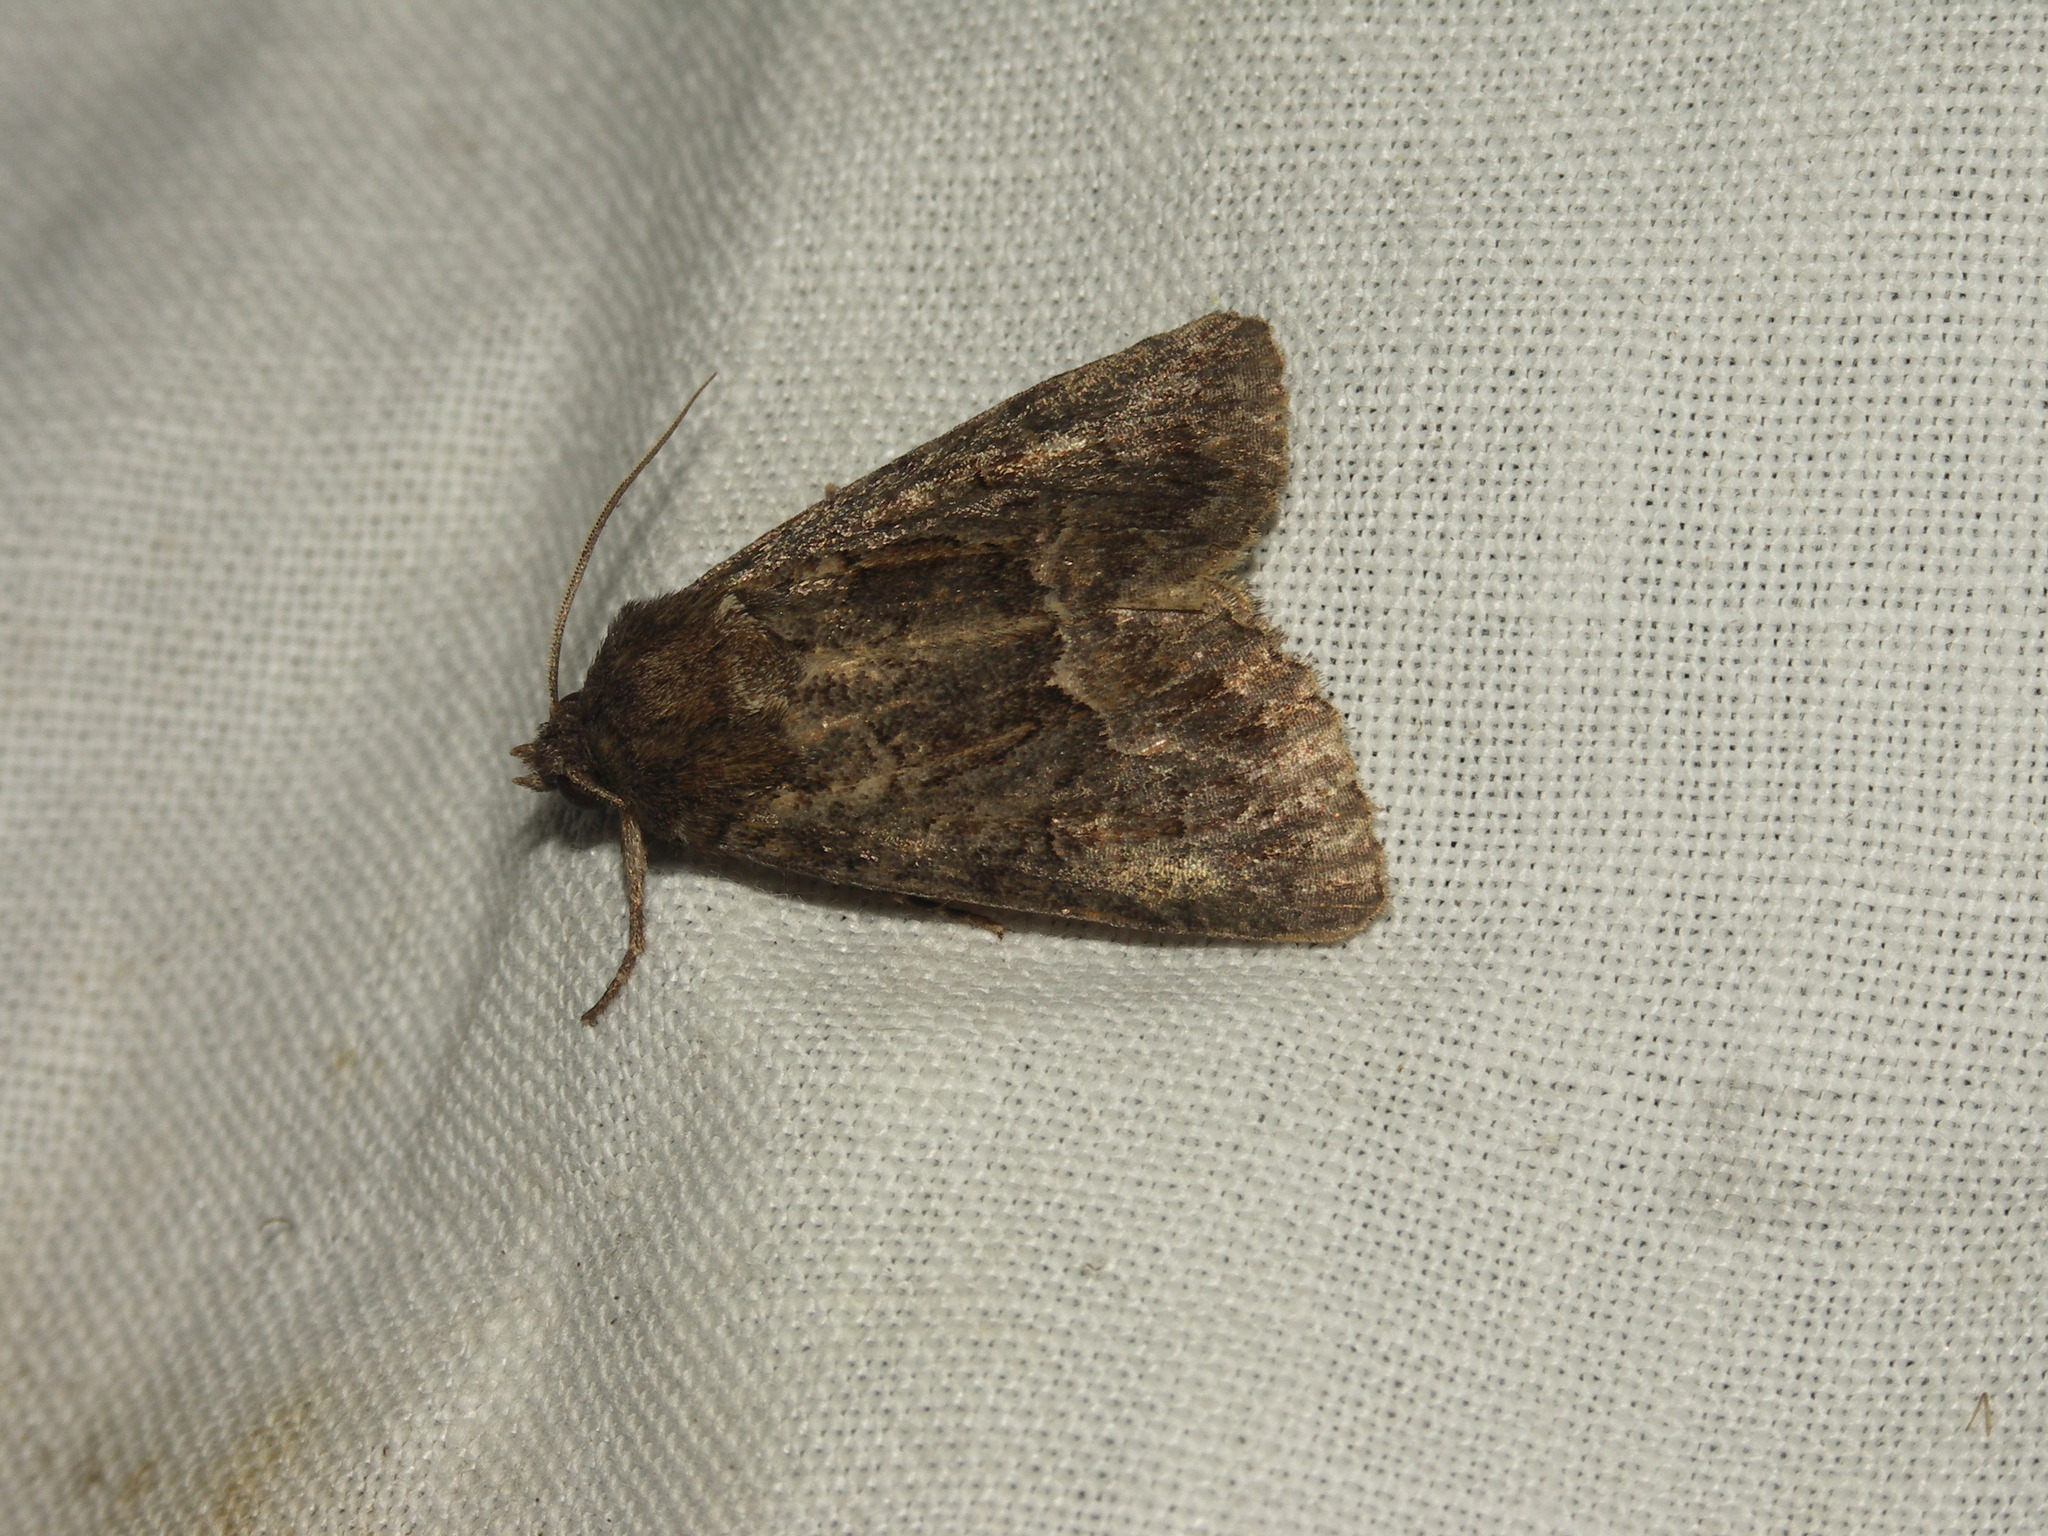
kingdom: Animalia
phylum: Arthropoda
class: Insecta
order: Lepidoptera
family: Noctuidae
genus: Thalpophila
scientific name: Thalpophila matura
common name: Straw underwing
